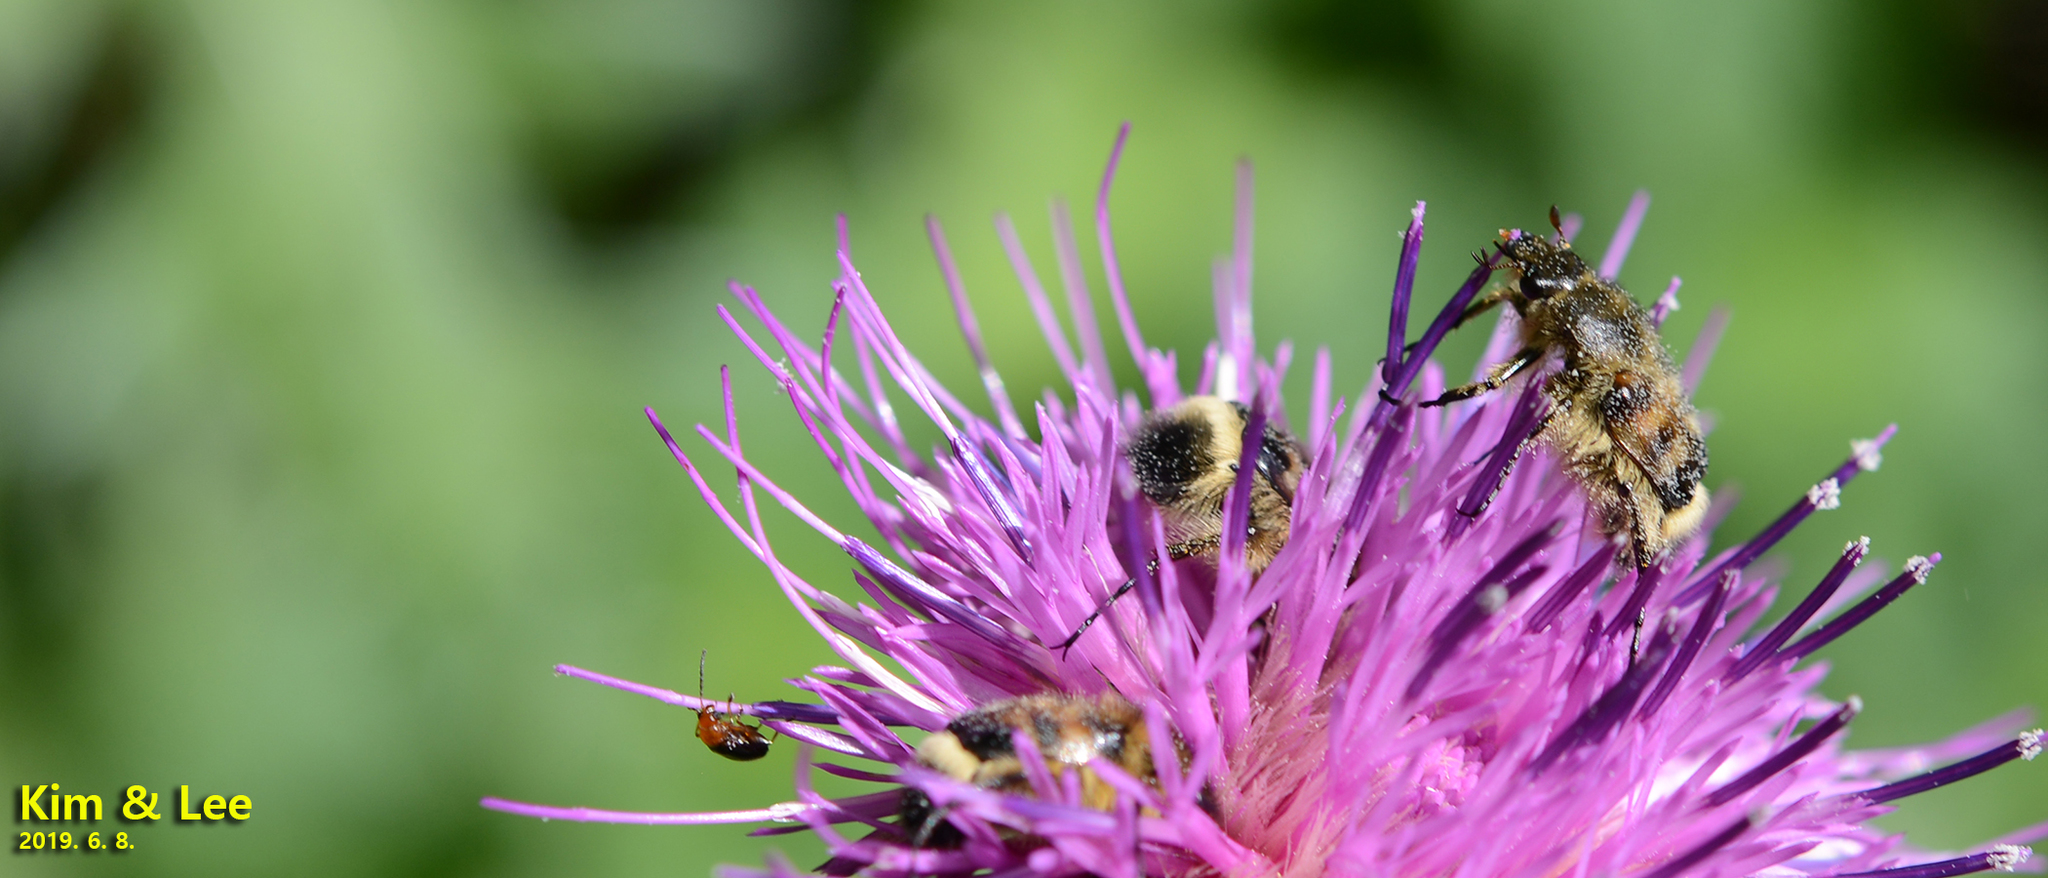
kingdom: Animalia
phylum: Arthropoda
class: Insecta
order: Coleoptera
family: Scarabaeidae
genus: Lasiotrichius
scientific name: Lasiotrichius succinctus
